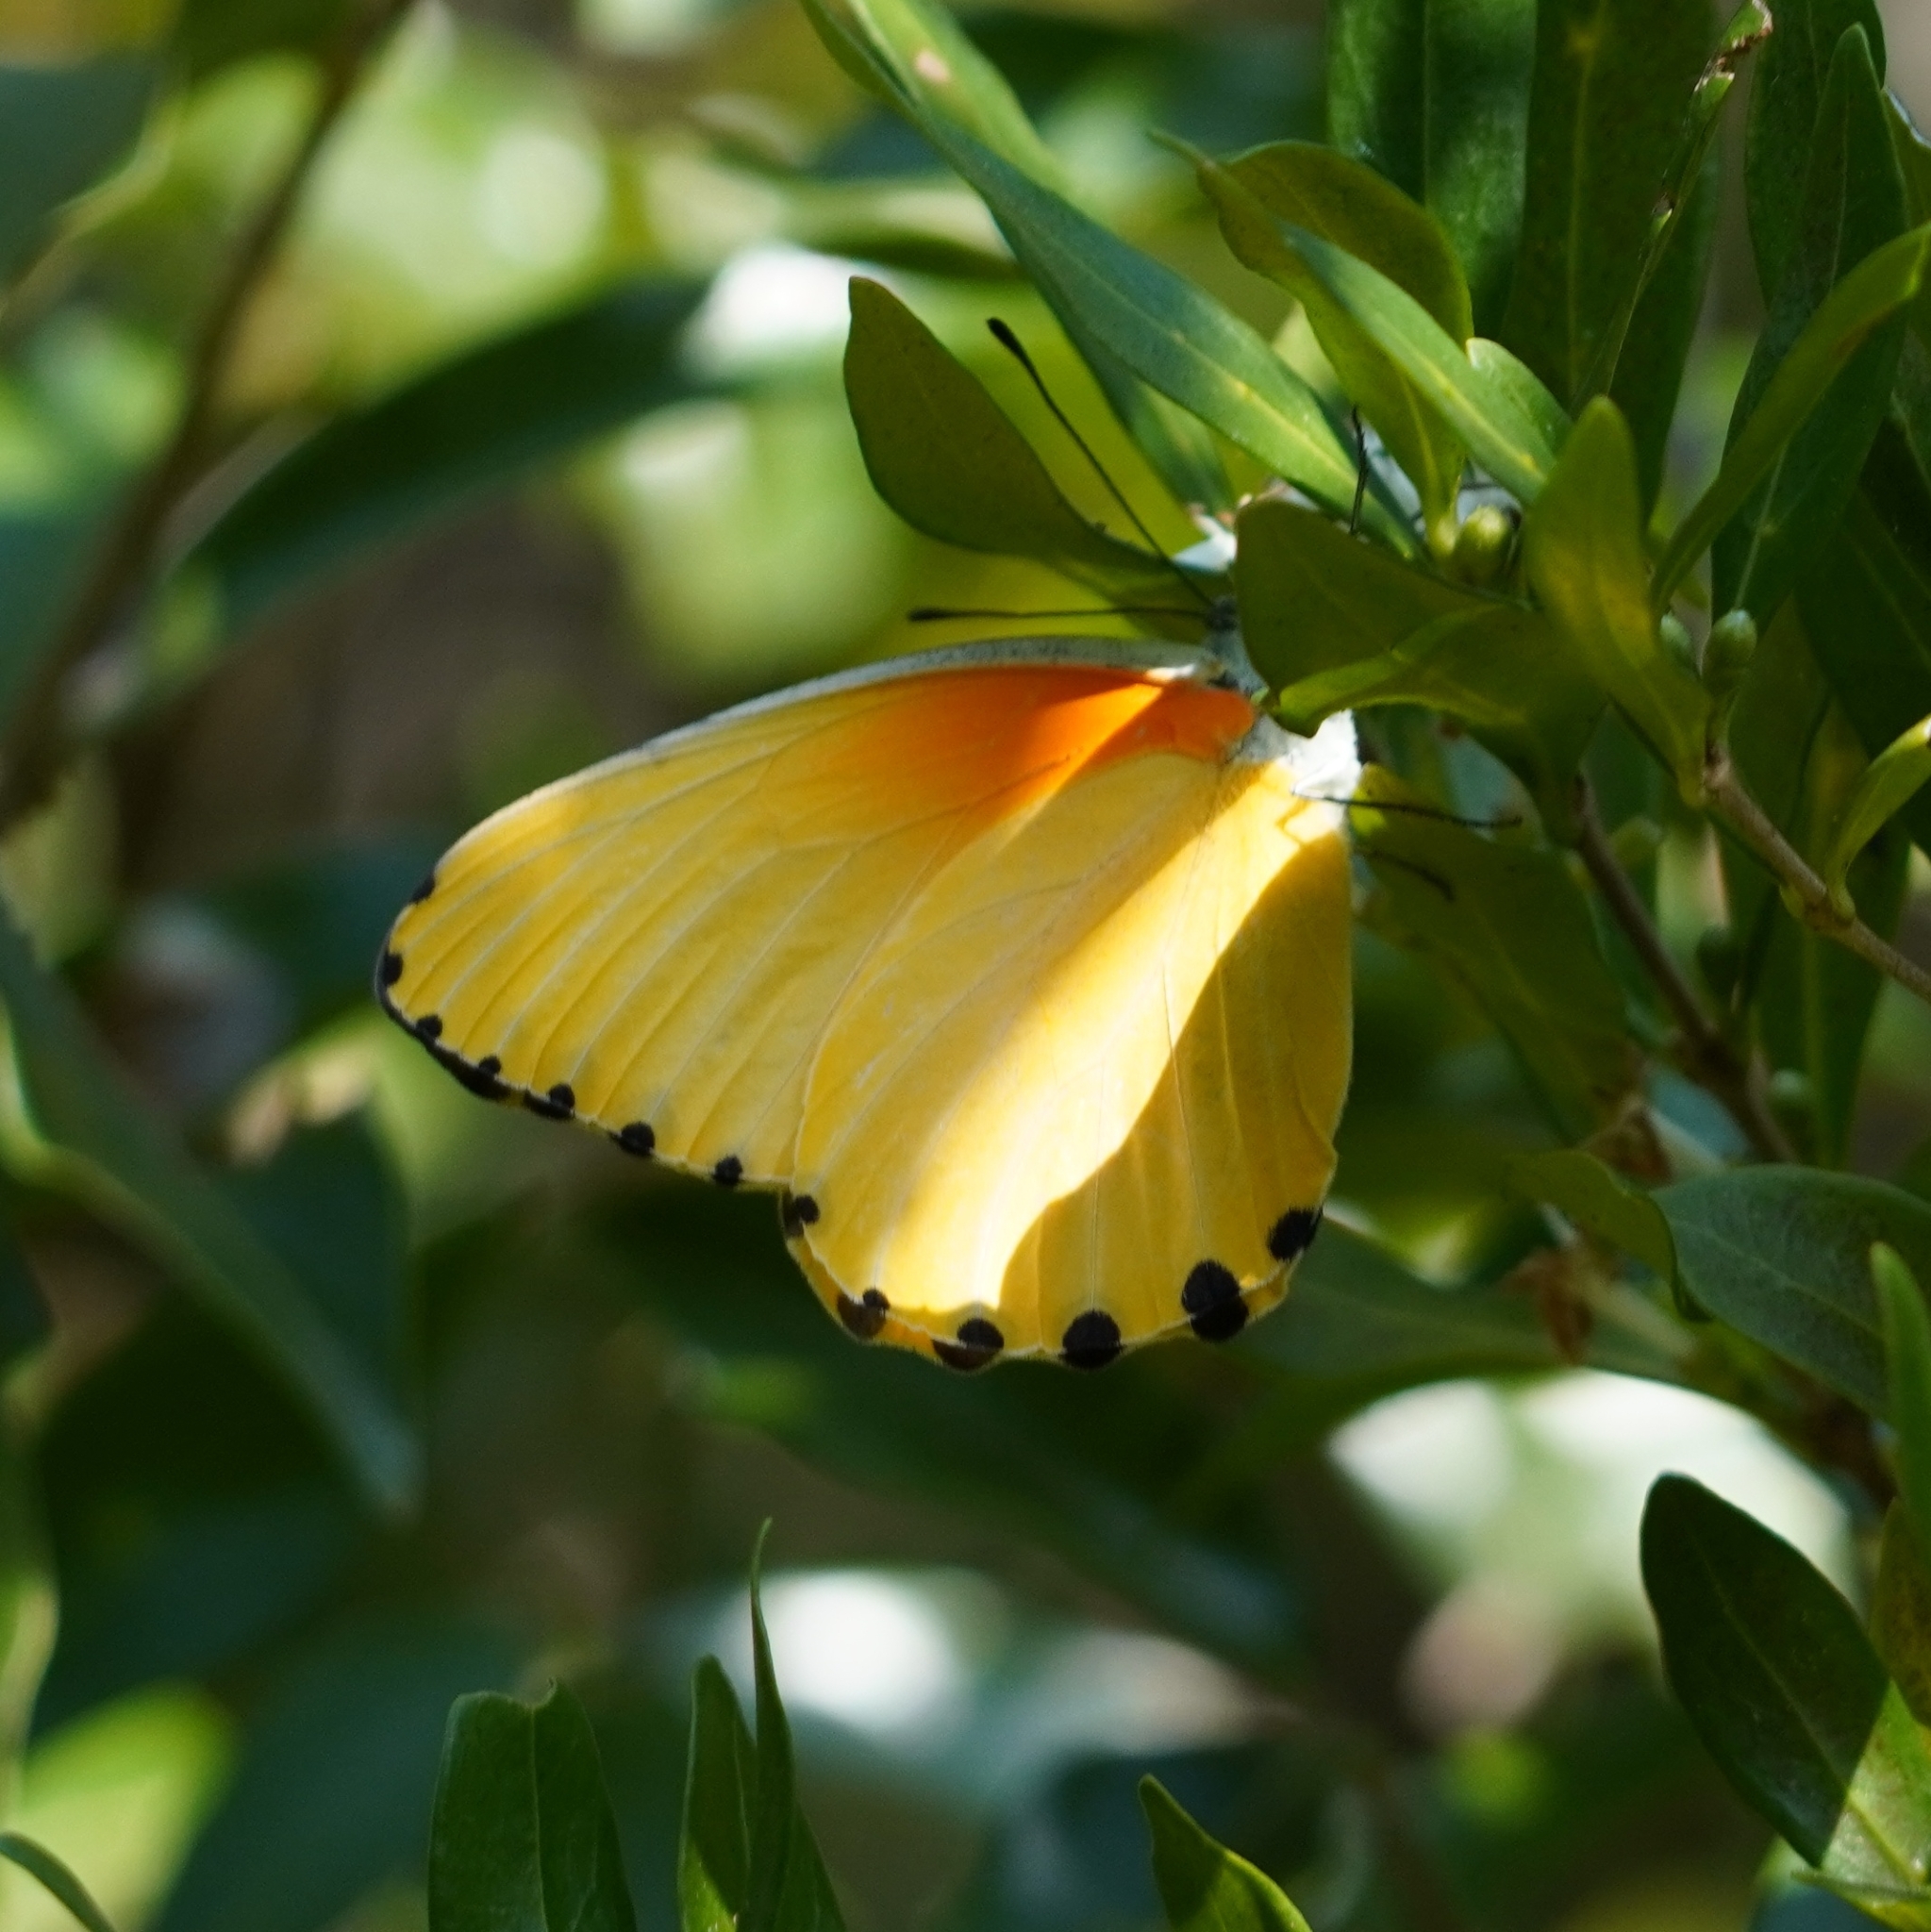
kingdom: Animalia
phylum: Arthropoda
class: Insecta
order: Lepidoptera
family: Pieridae
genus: Mylothris
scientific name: Mylothris agathina
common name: Eastern dotted border
